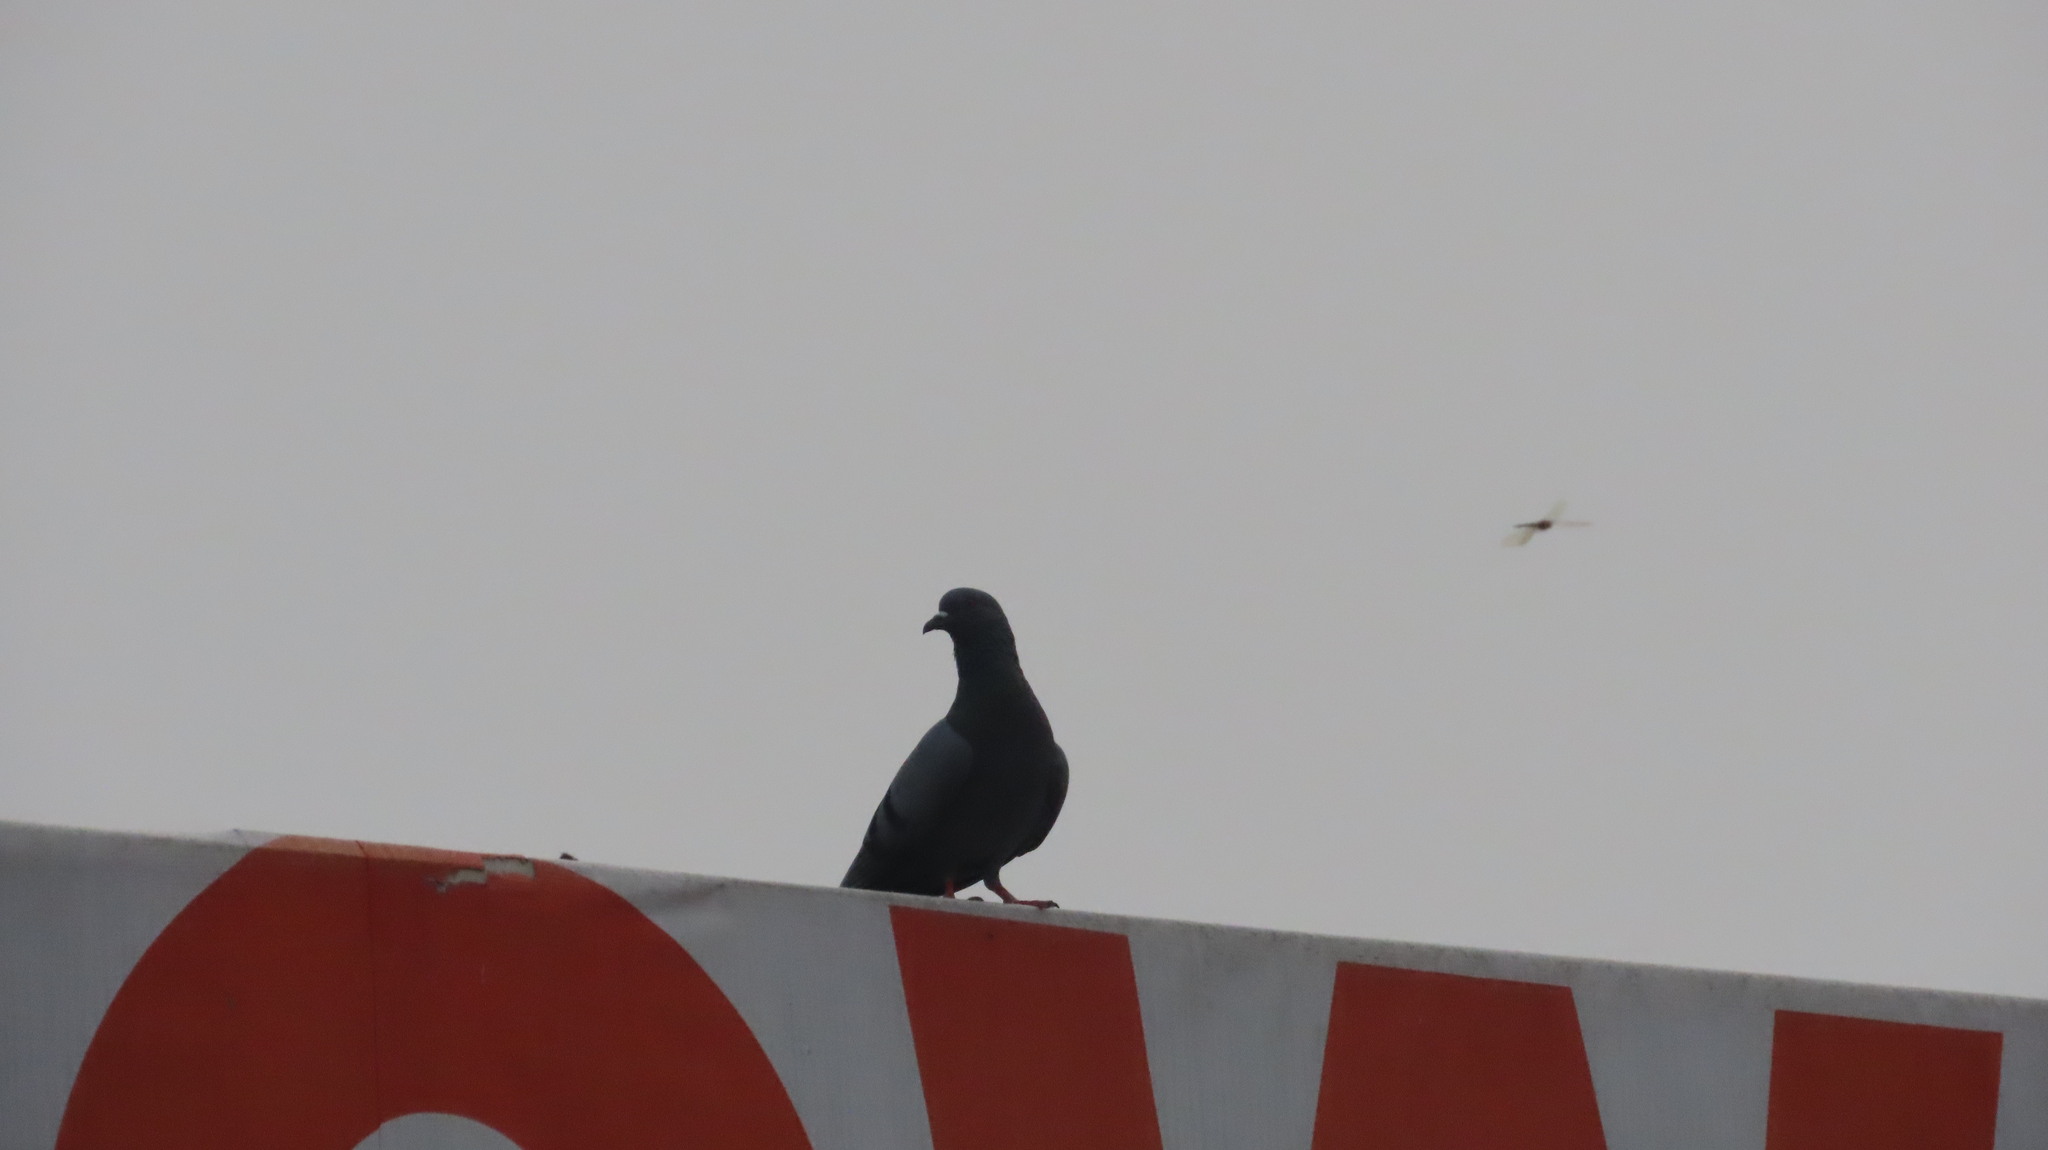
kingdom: Animalia
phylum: Chordata
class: Aves
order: Columbiformes
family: Columbidae
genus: Columba
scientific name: Columba livia
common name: Rock pigeon
